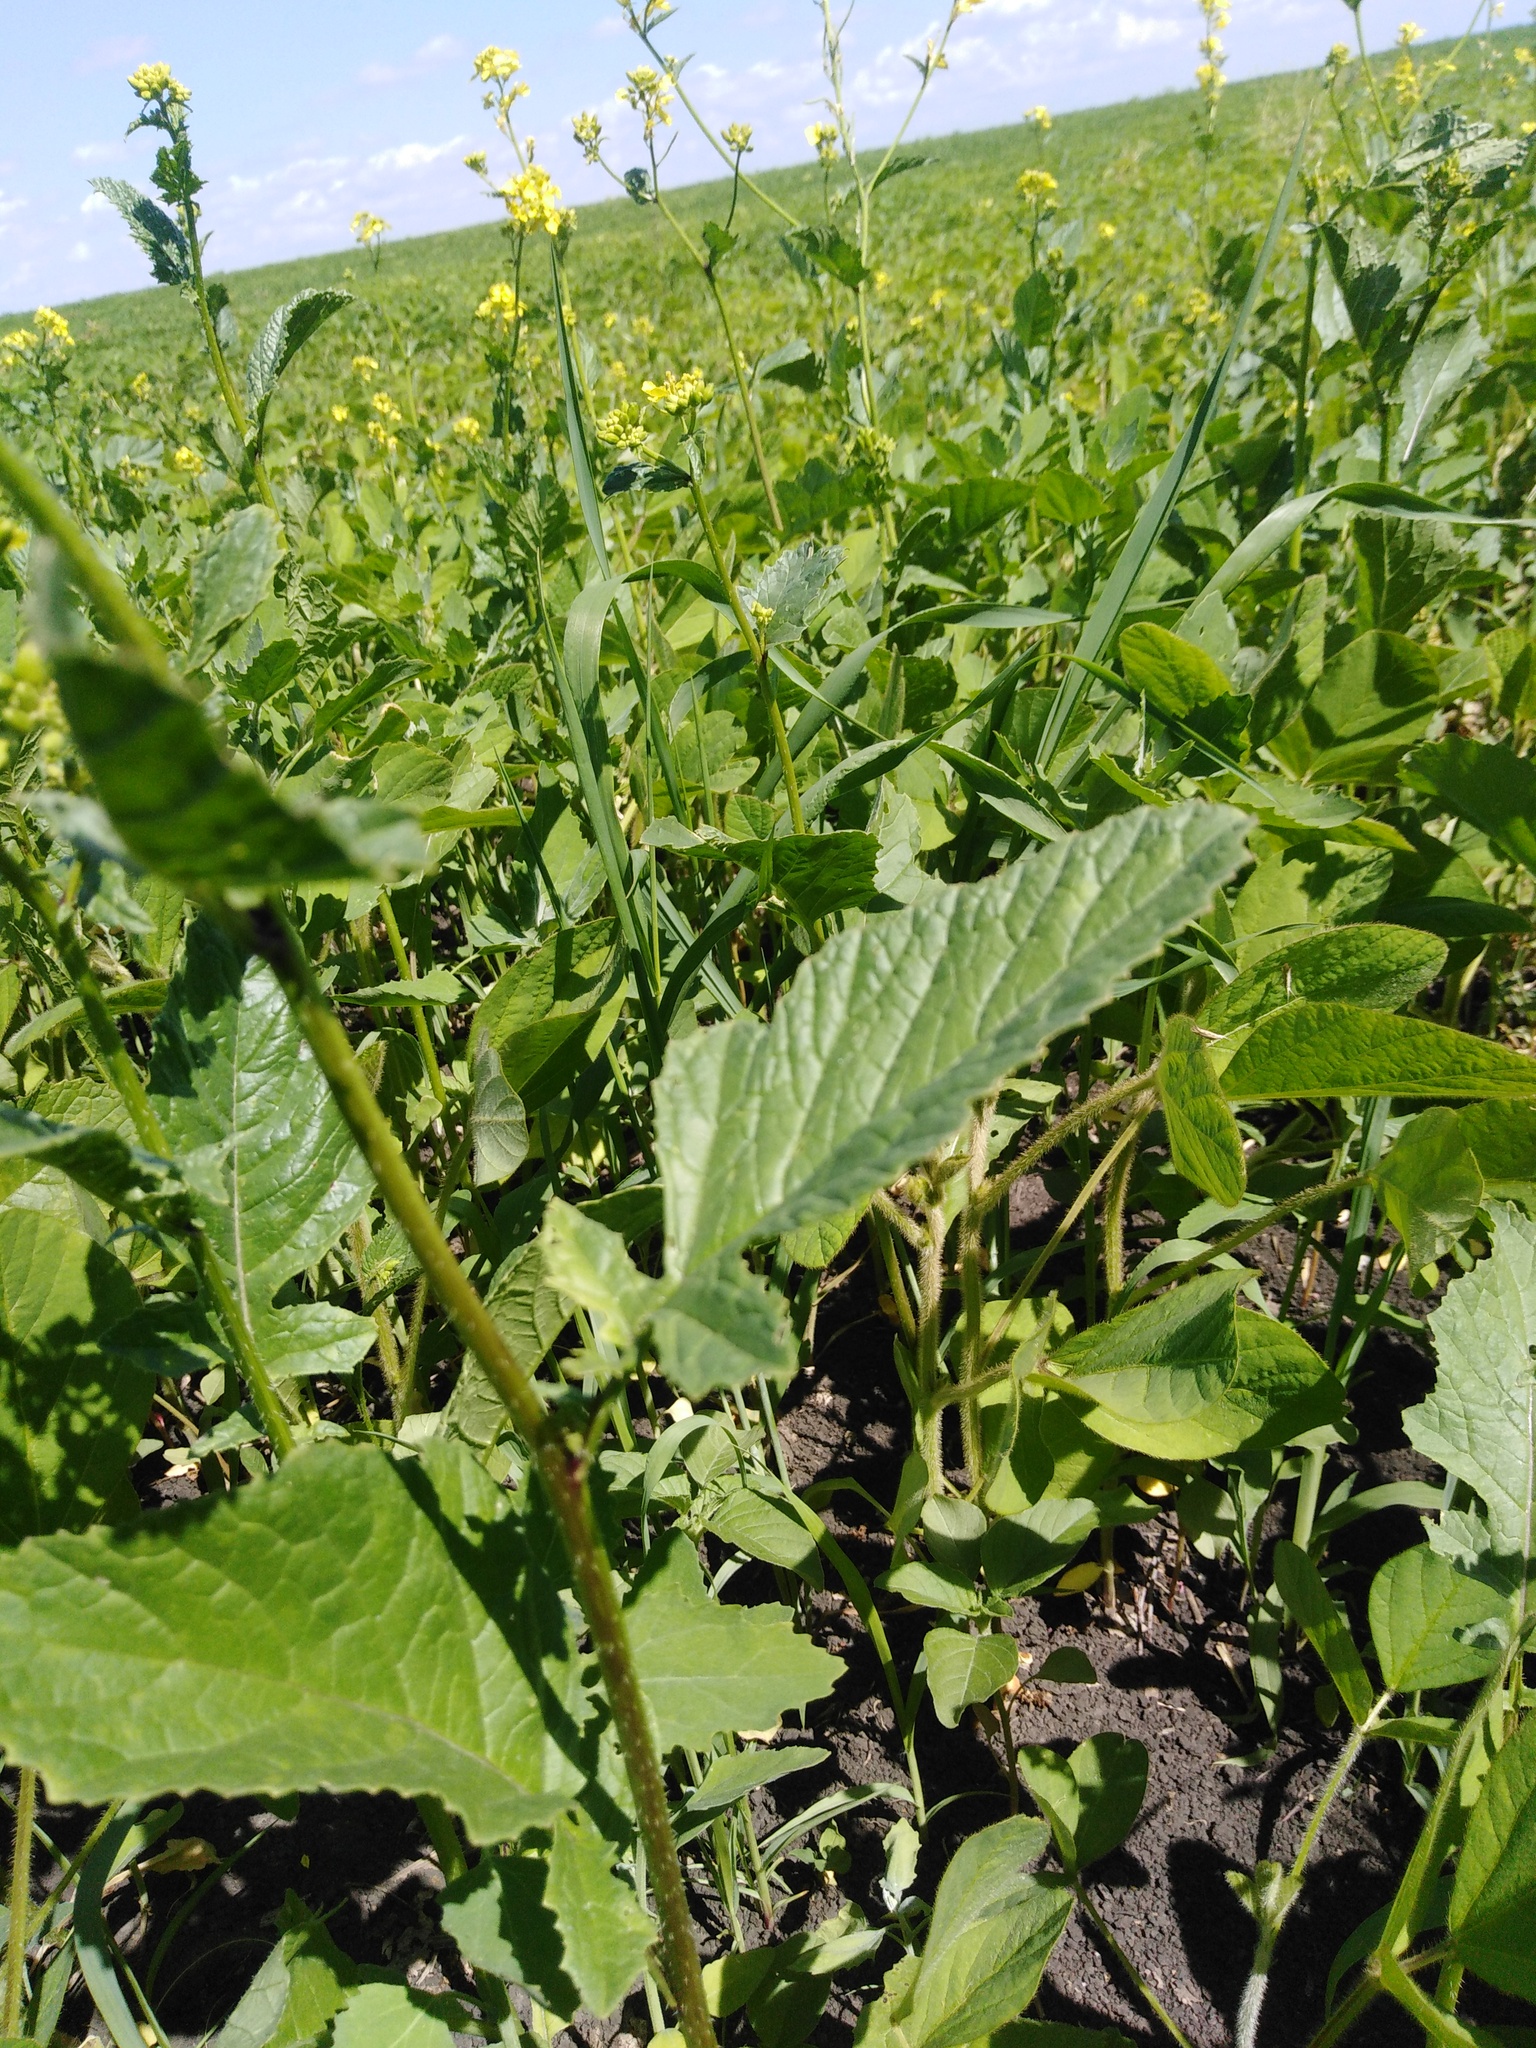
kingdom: Plantae
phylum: Tracheophyta
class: Magnoliopsida
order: Brassicales
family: Brassicaceae
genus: Sinapis
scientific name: Sinapis arvensis
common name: Charlock
